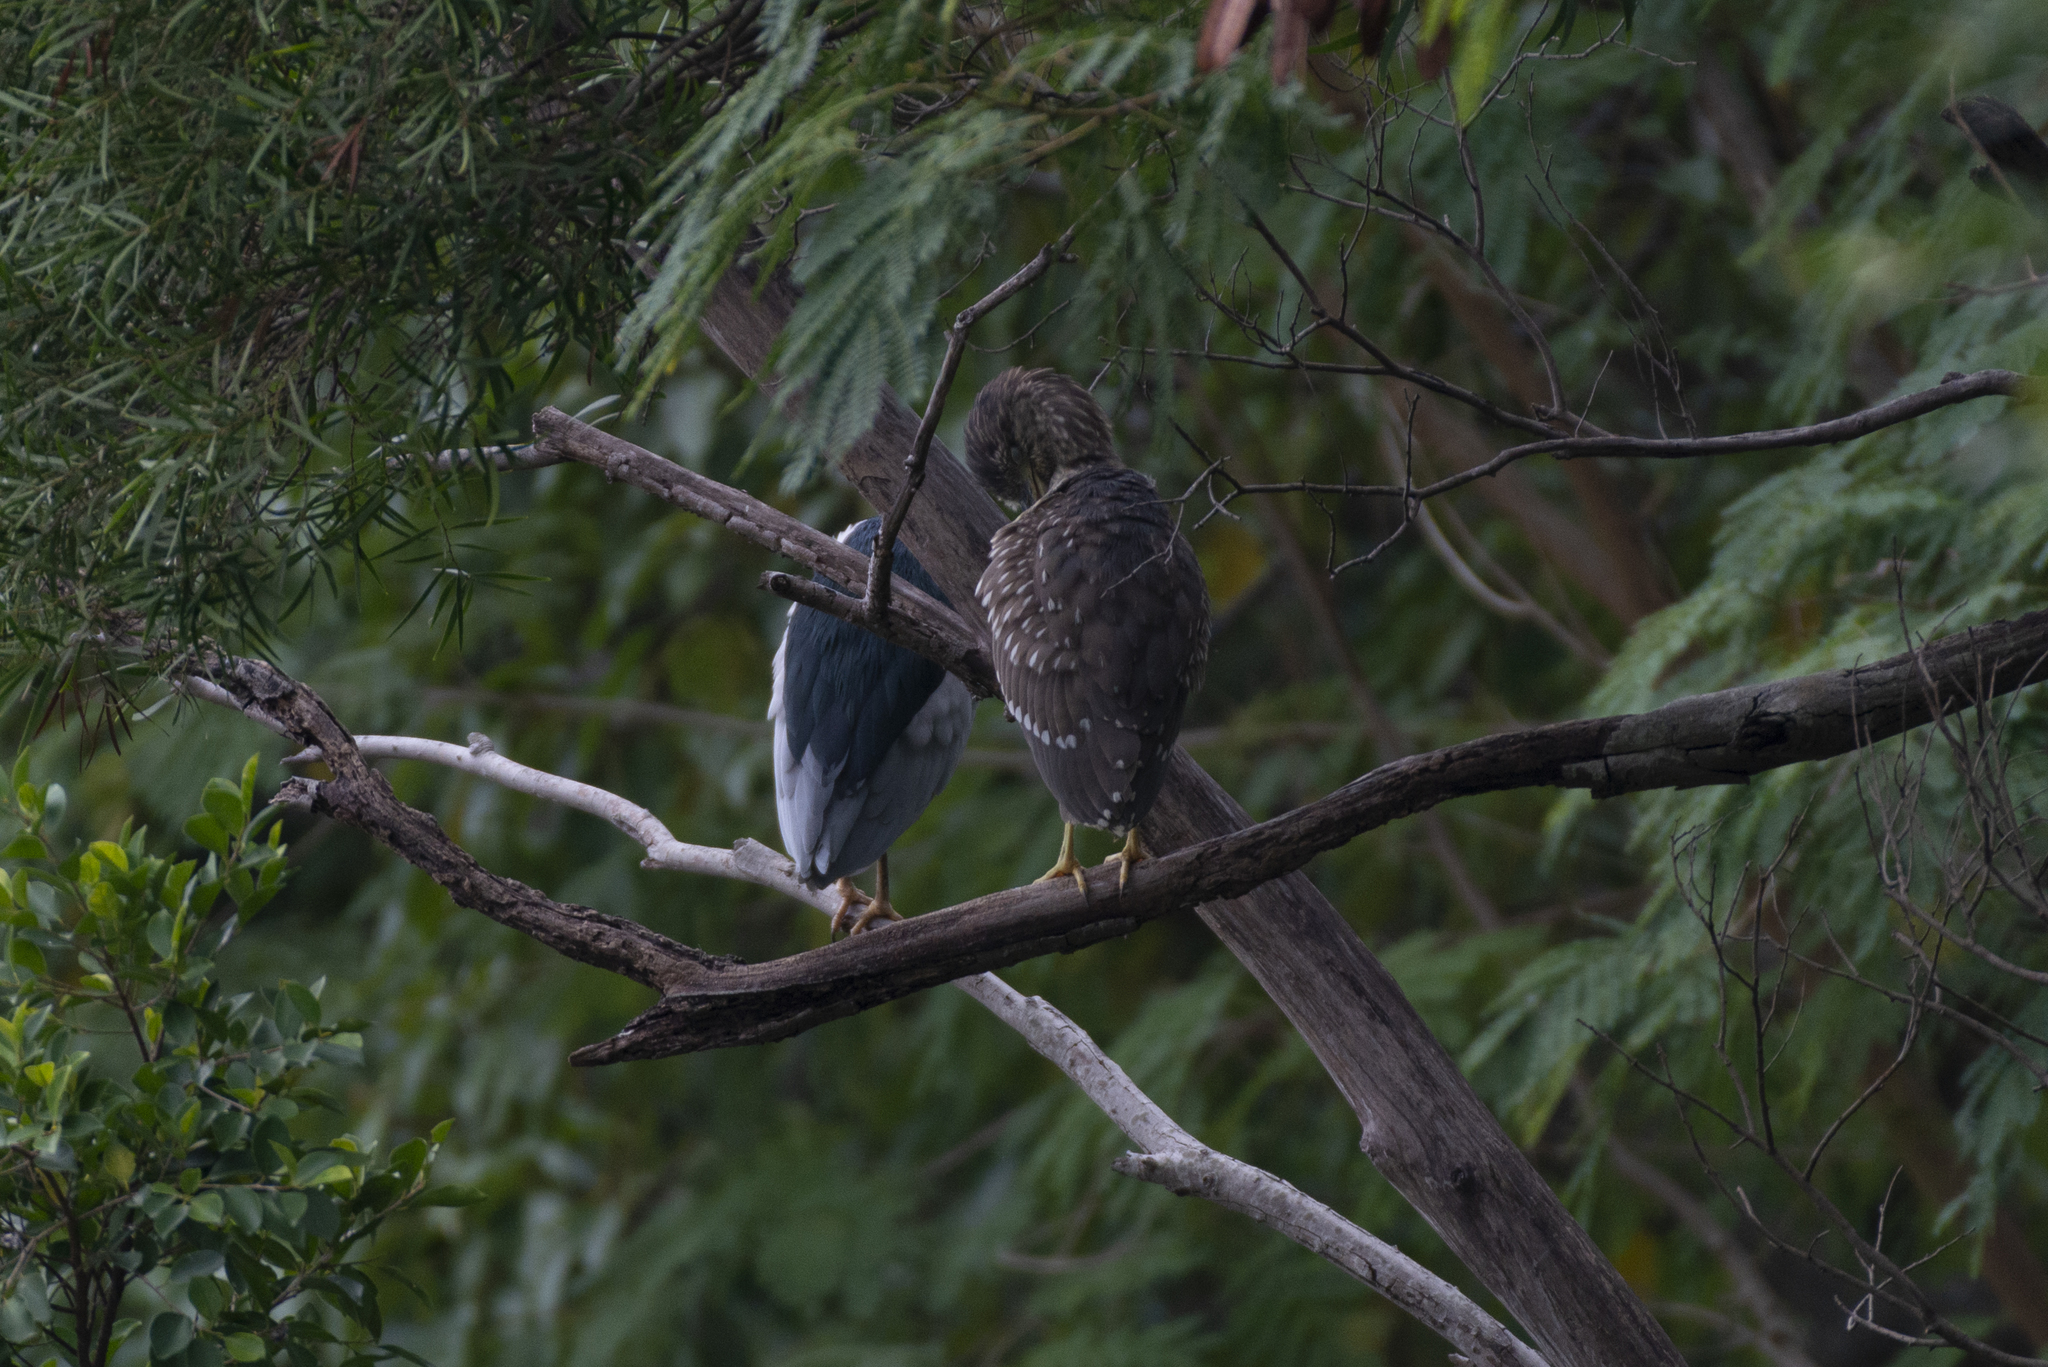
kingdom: Animalia
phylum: Chordata
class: Aves
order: Pelecaniformes
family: Ardeidae
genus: Nycticorax
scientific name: Nycticorax nycticorax
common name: Black-crowned night heron
